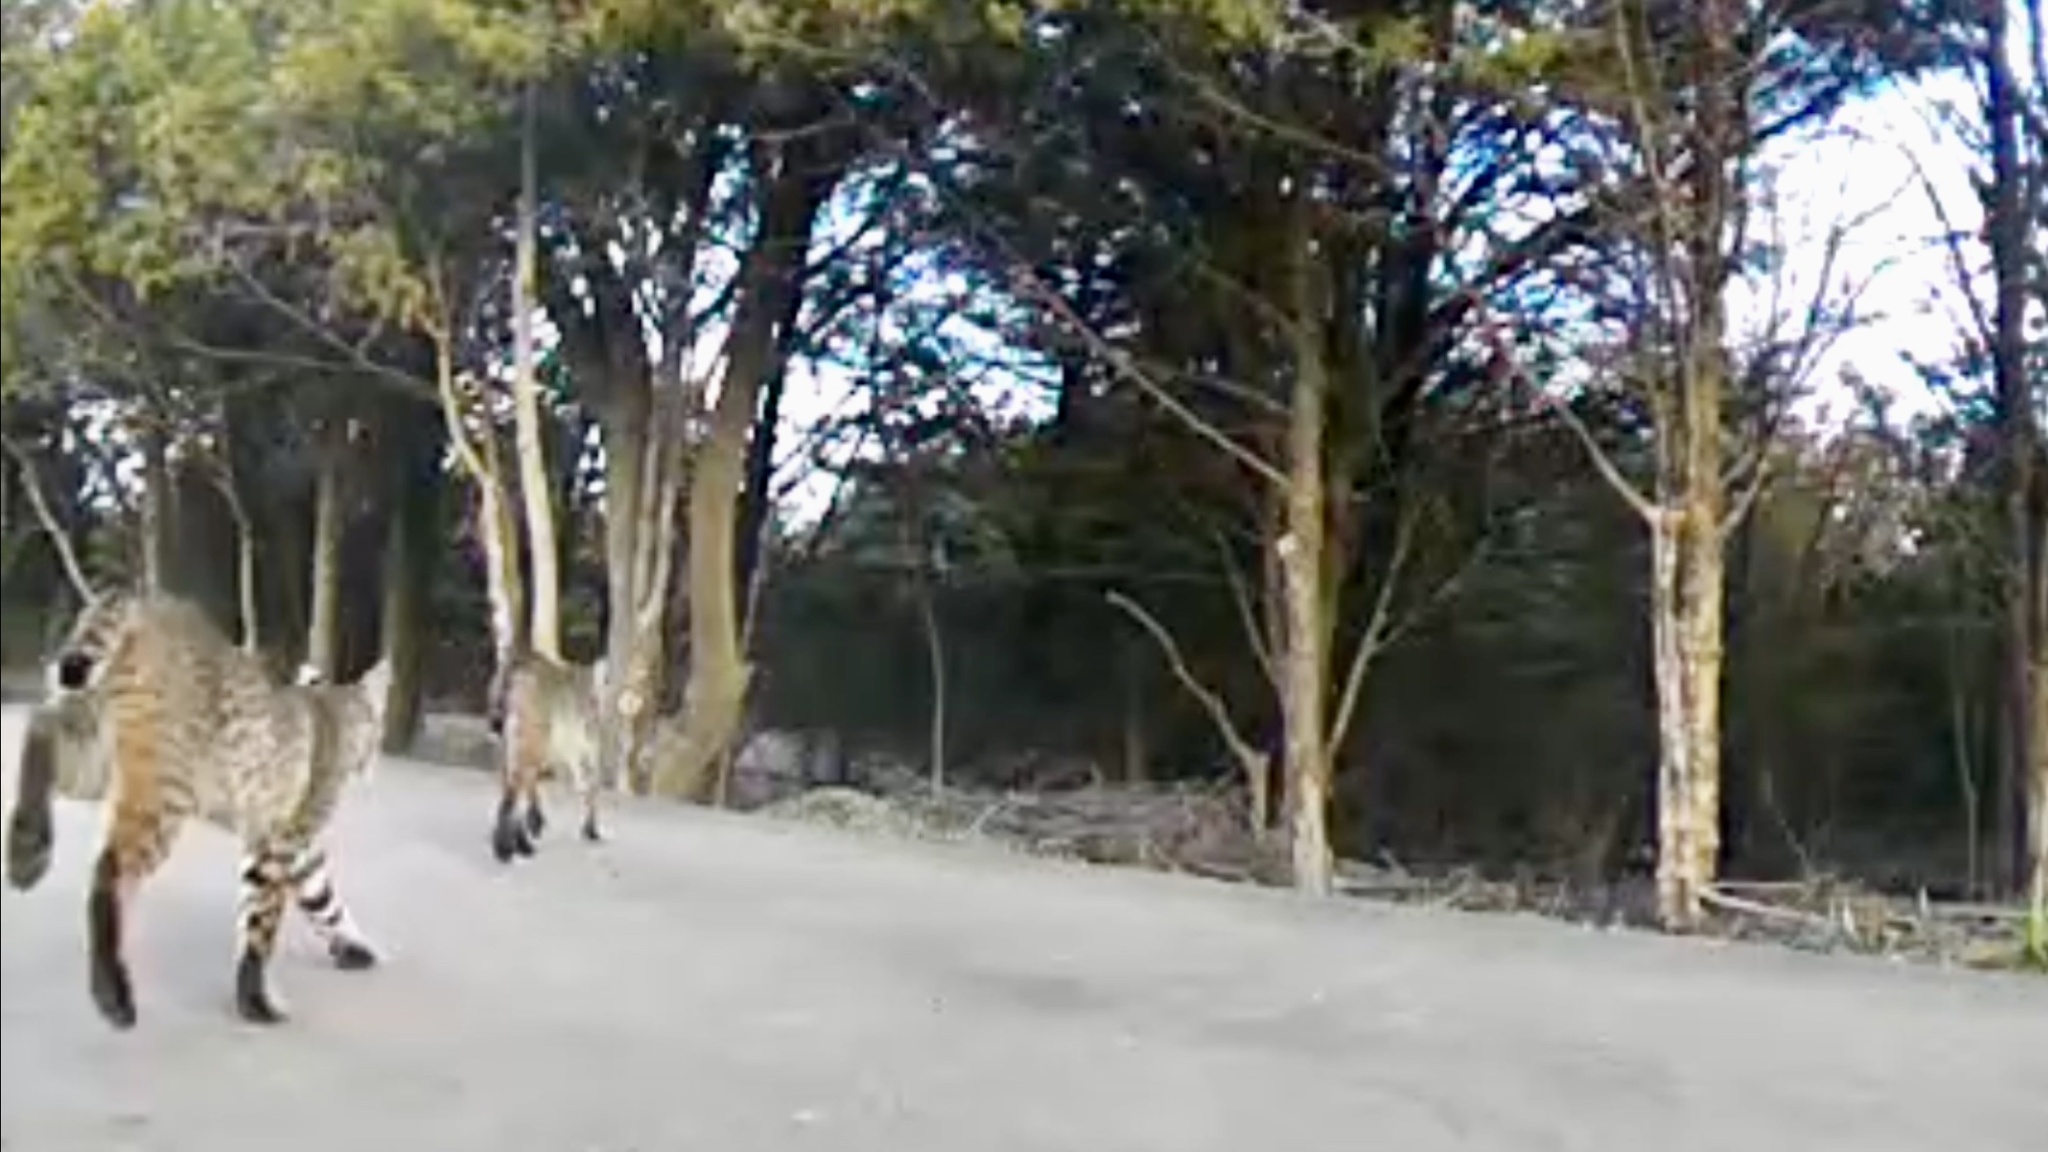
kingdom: Animalia
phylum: Chordata
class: Mammalia
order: Carnivora
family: Felidae
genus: Lynx
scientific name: Lynx rufus
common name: Bobcat
